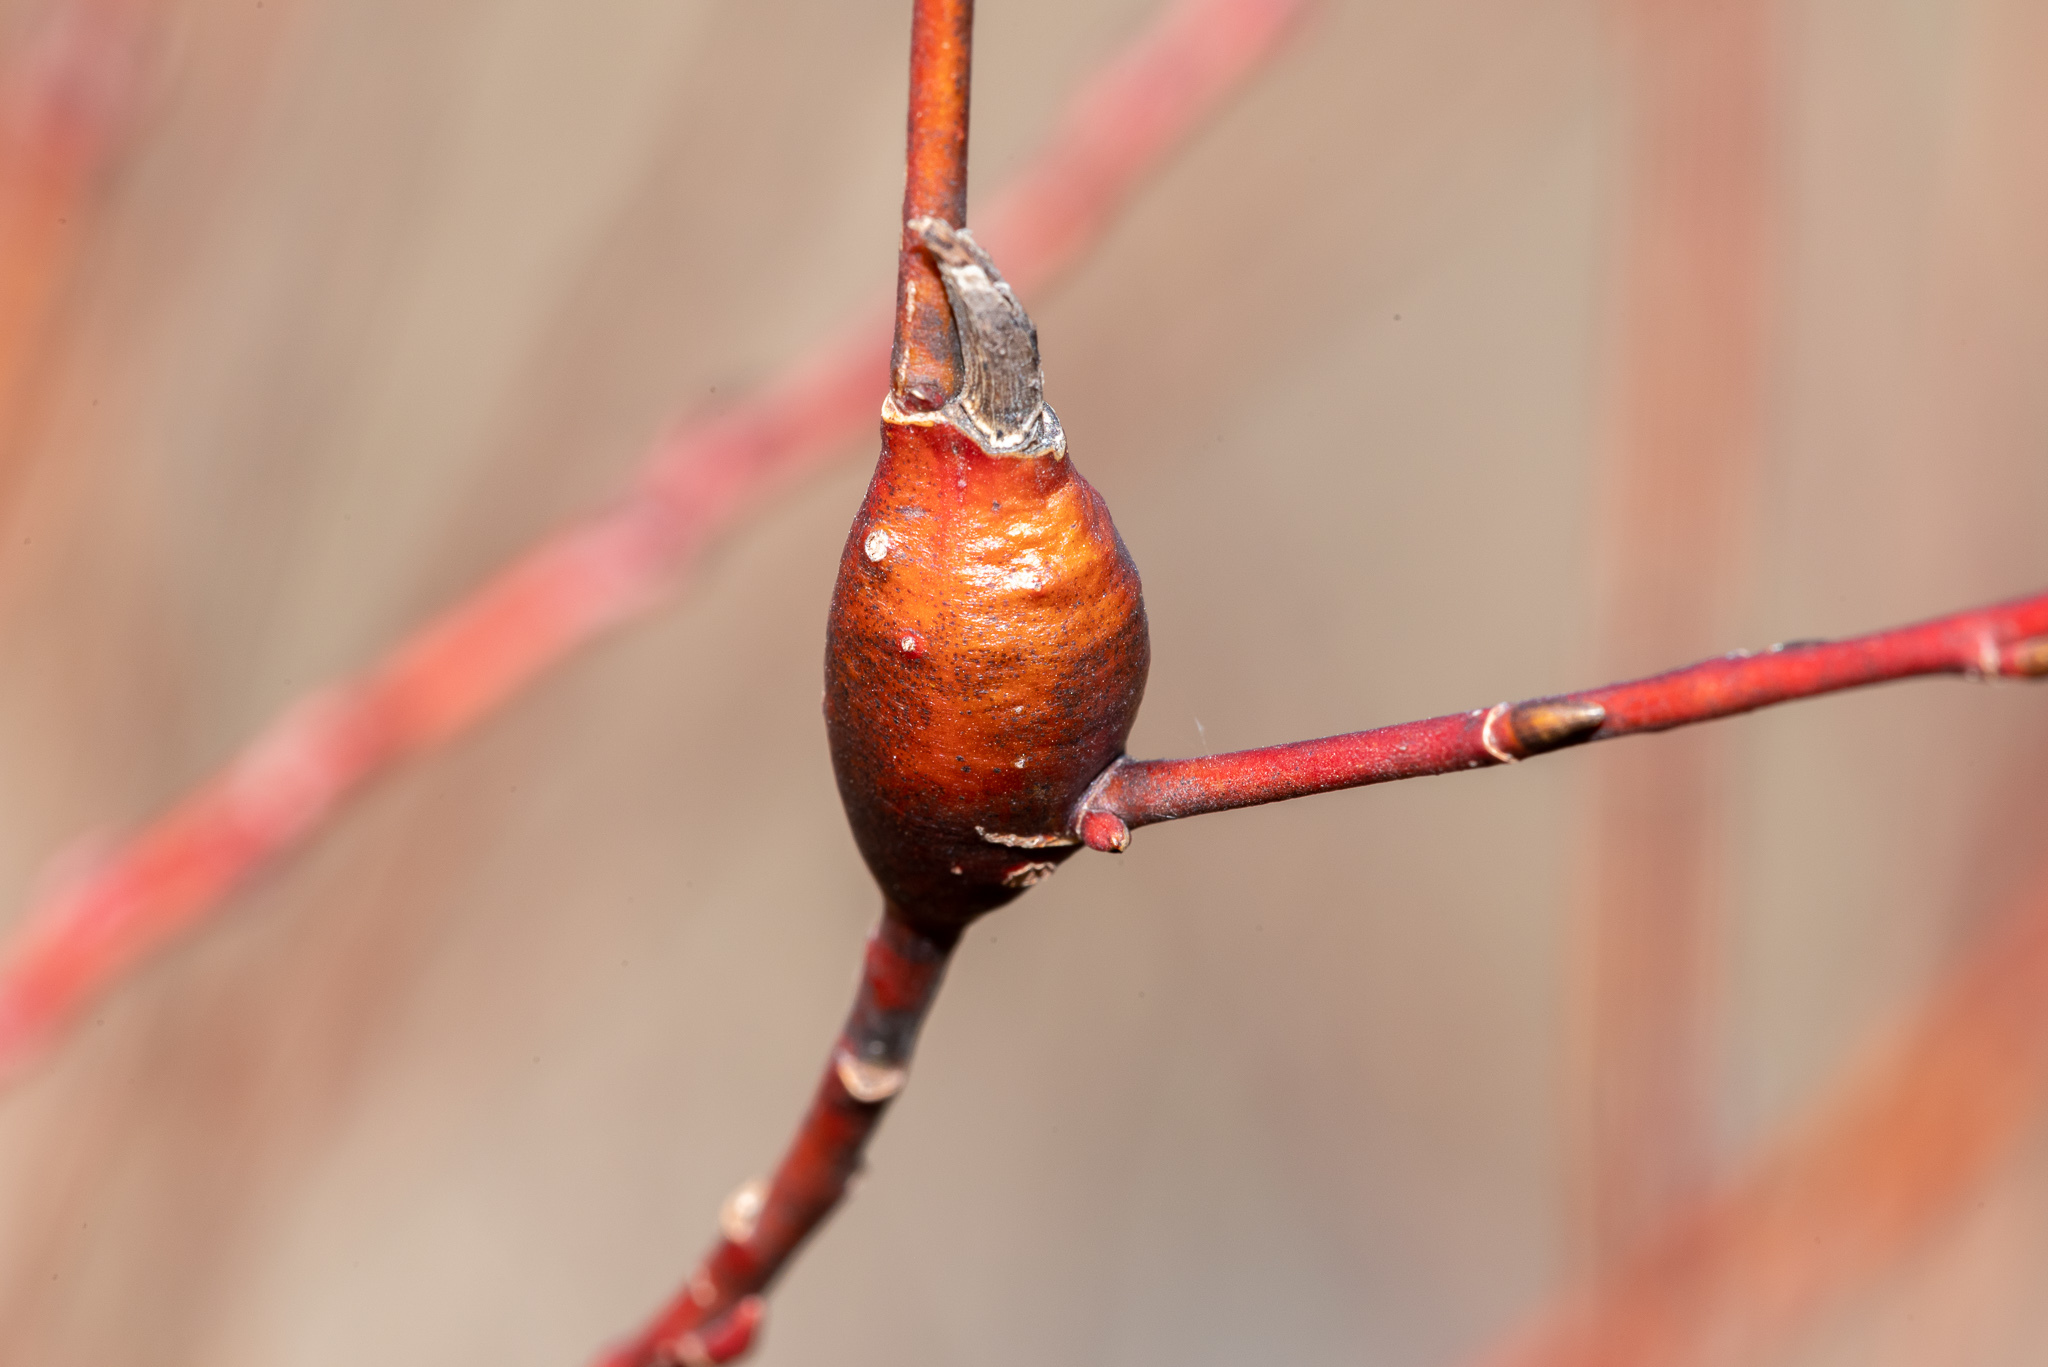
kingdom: Animalia
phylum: Arthropoda
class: Insecta
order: Diptera
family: Cecidomyiidae
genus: Thecodiplosis
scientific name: Thecodiplosis pinirigidae
